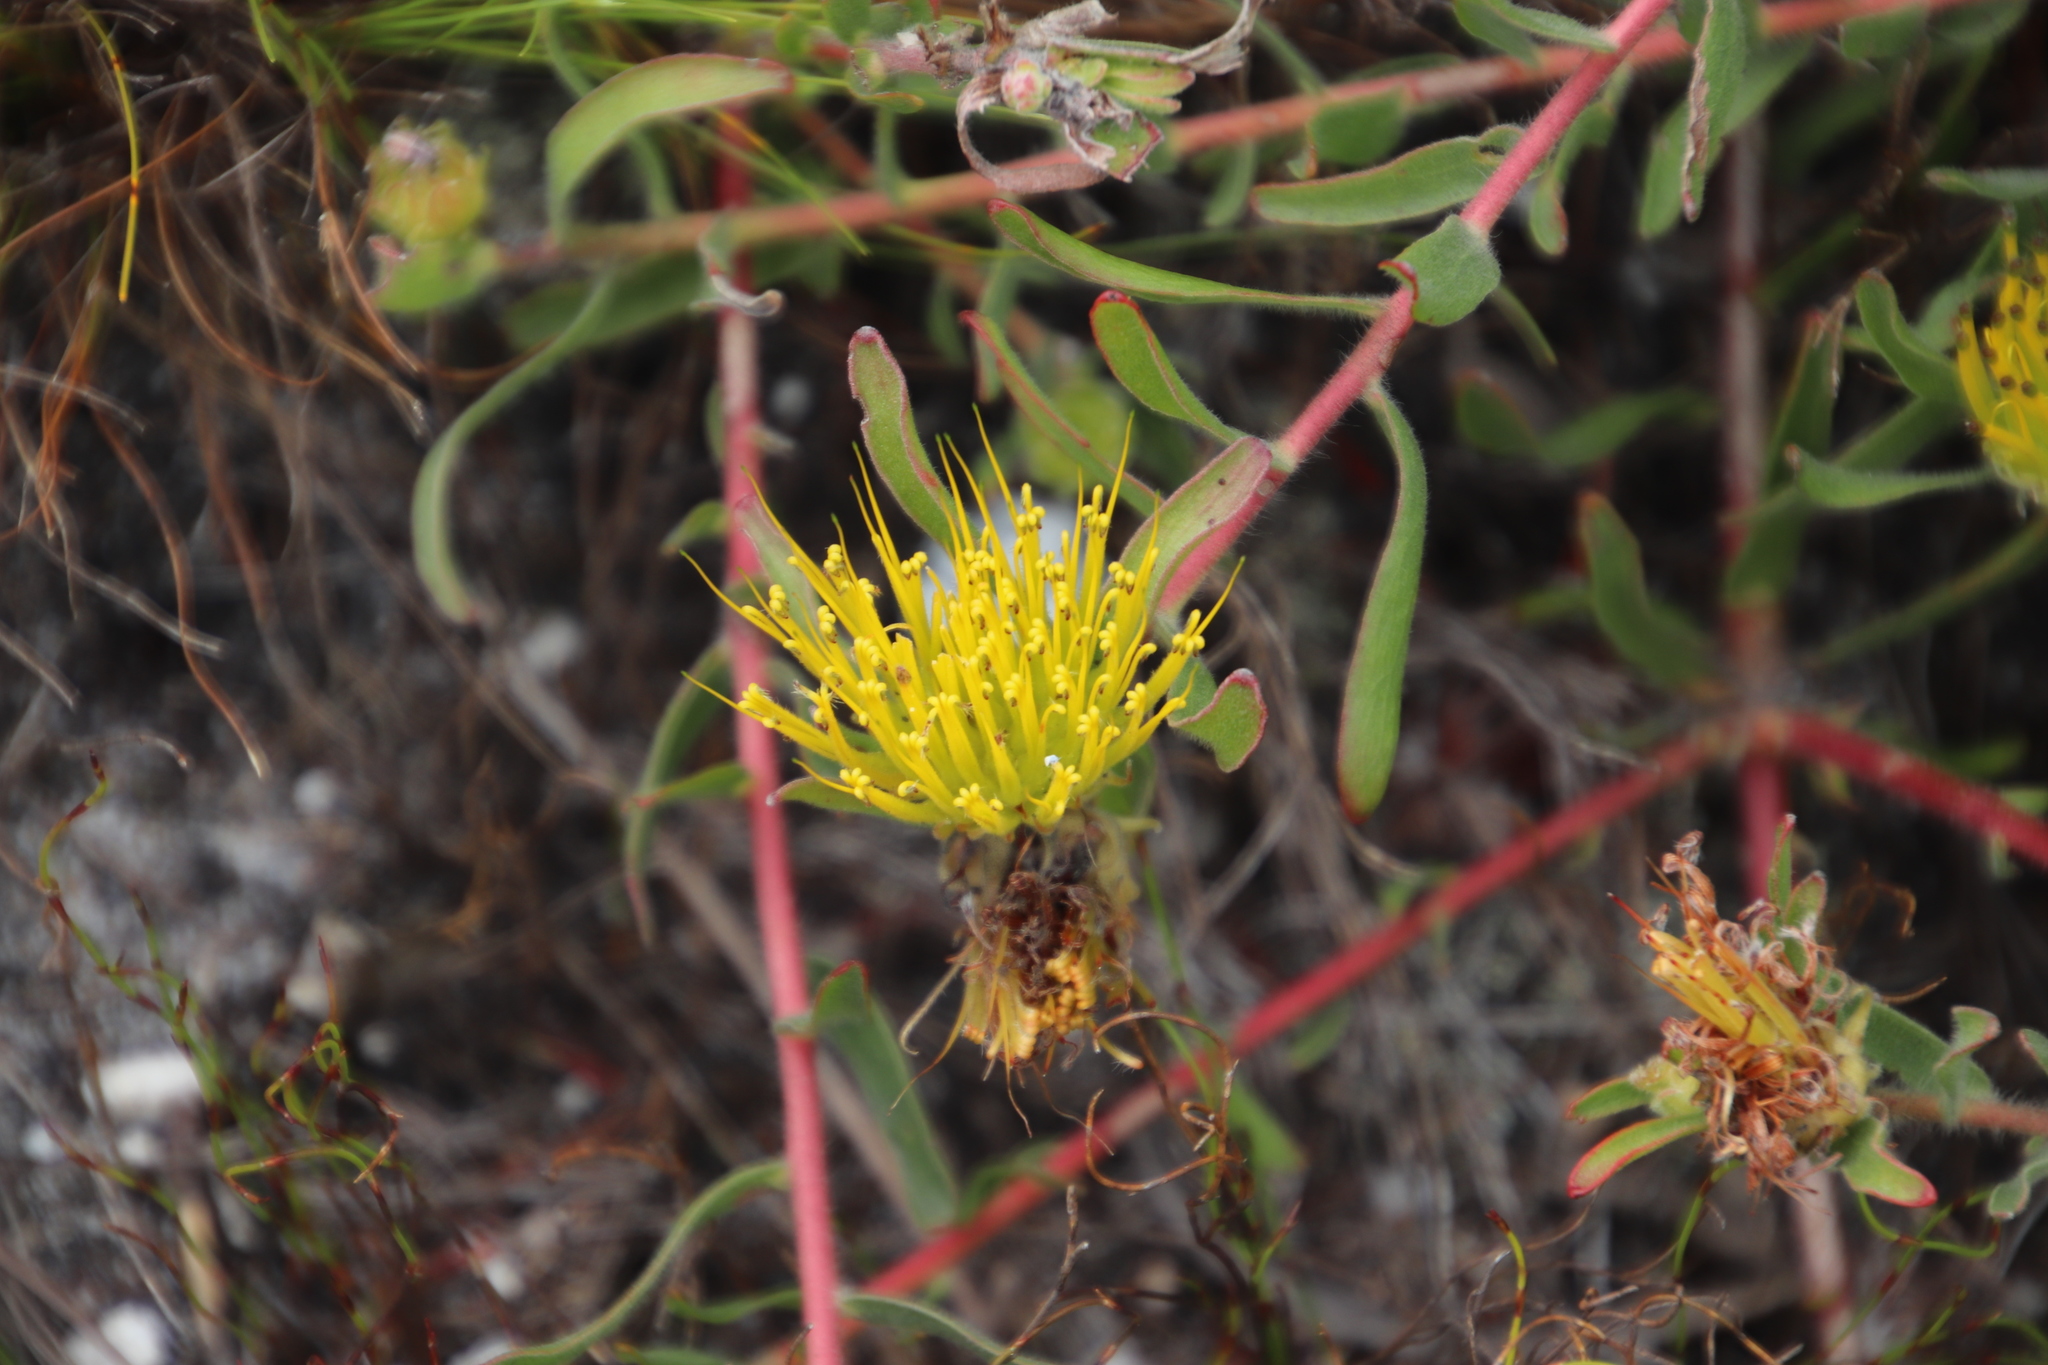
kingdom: Plantae
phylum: Tracheophyta
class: Magnoliopsida
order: Proteales
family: Proteaceae
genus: Leucospermum
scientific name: Leucospermum gracile
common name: Hermanus pincushion
